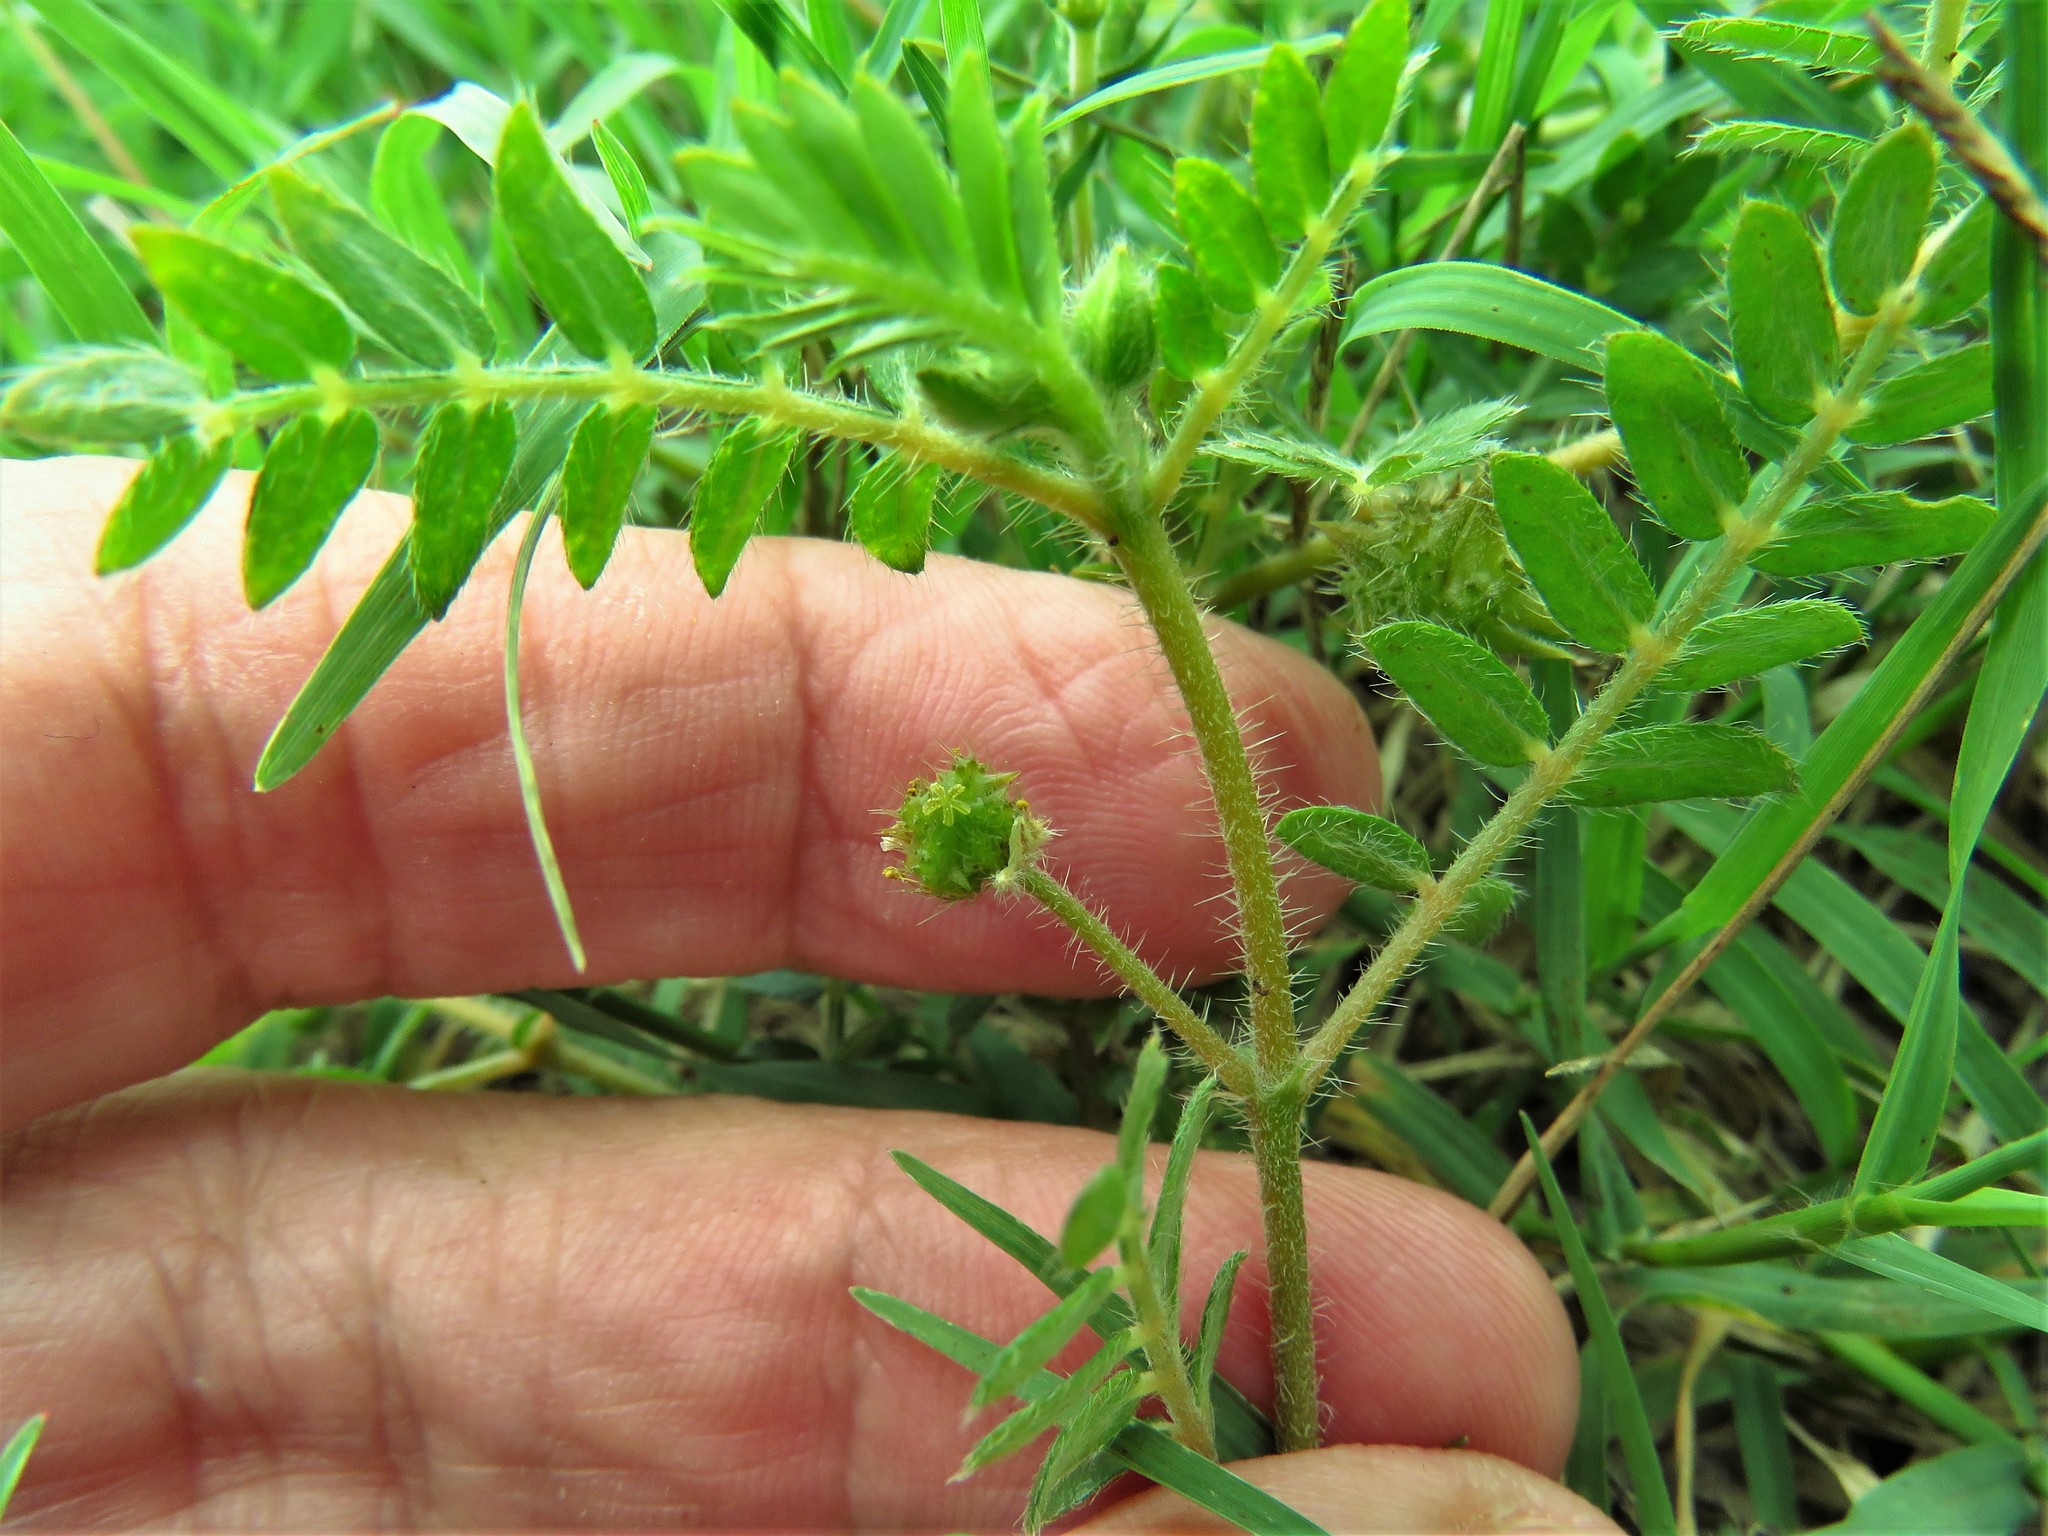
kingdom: Plantae
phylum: Tracheophyta
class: Magnoliopsida
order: Zygophyllales
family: Zygophyllaceae
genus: Tribulus
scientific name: Tribulus terrestris
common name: Puncturevine
